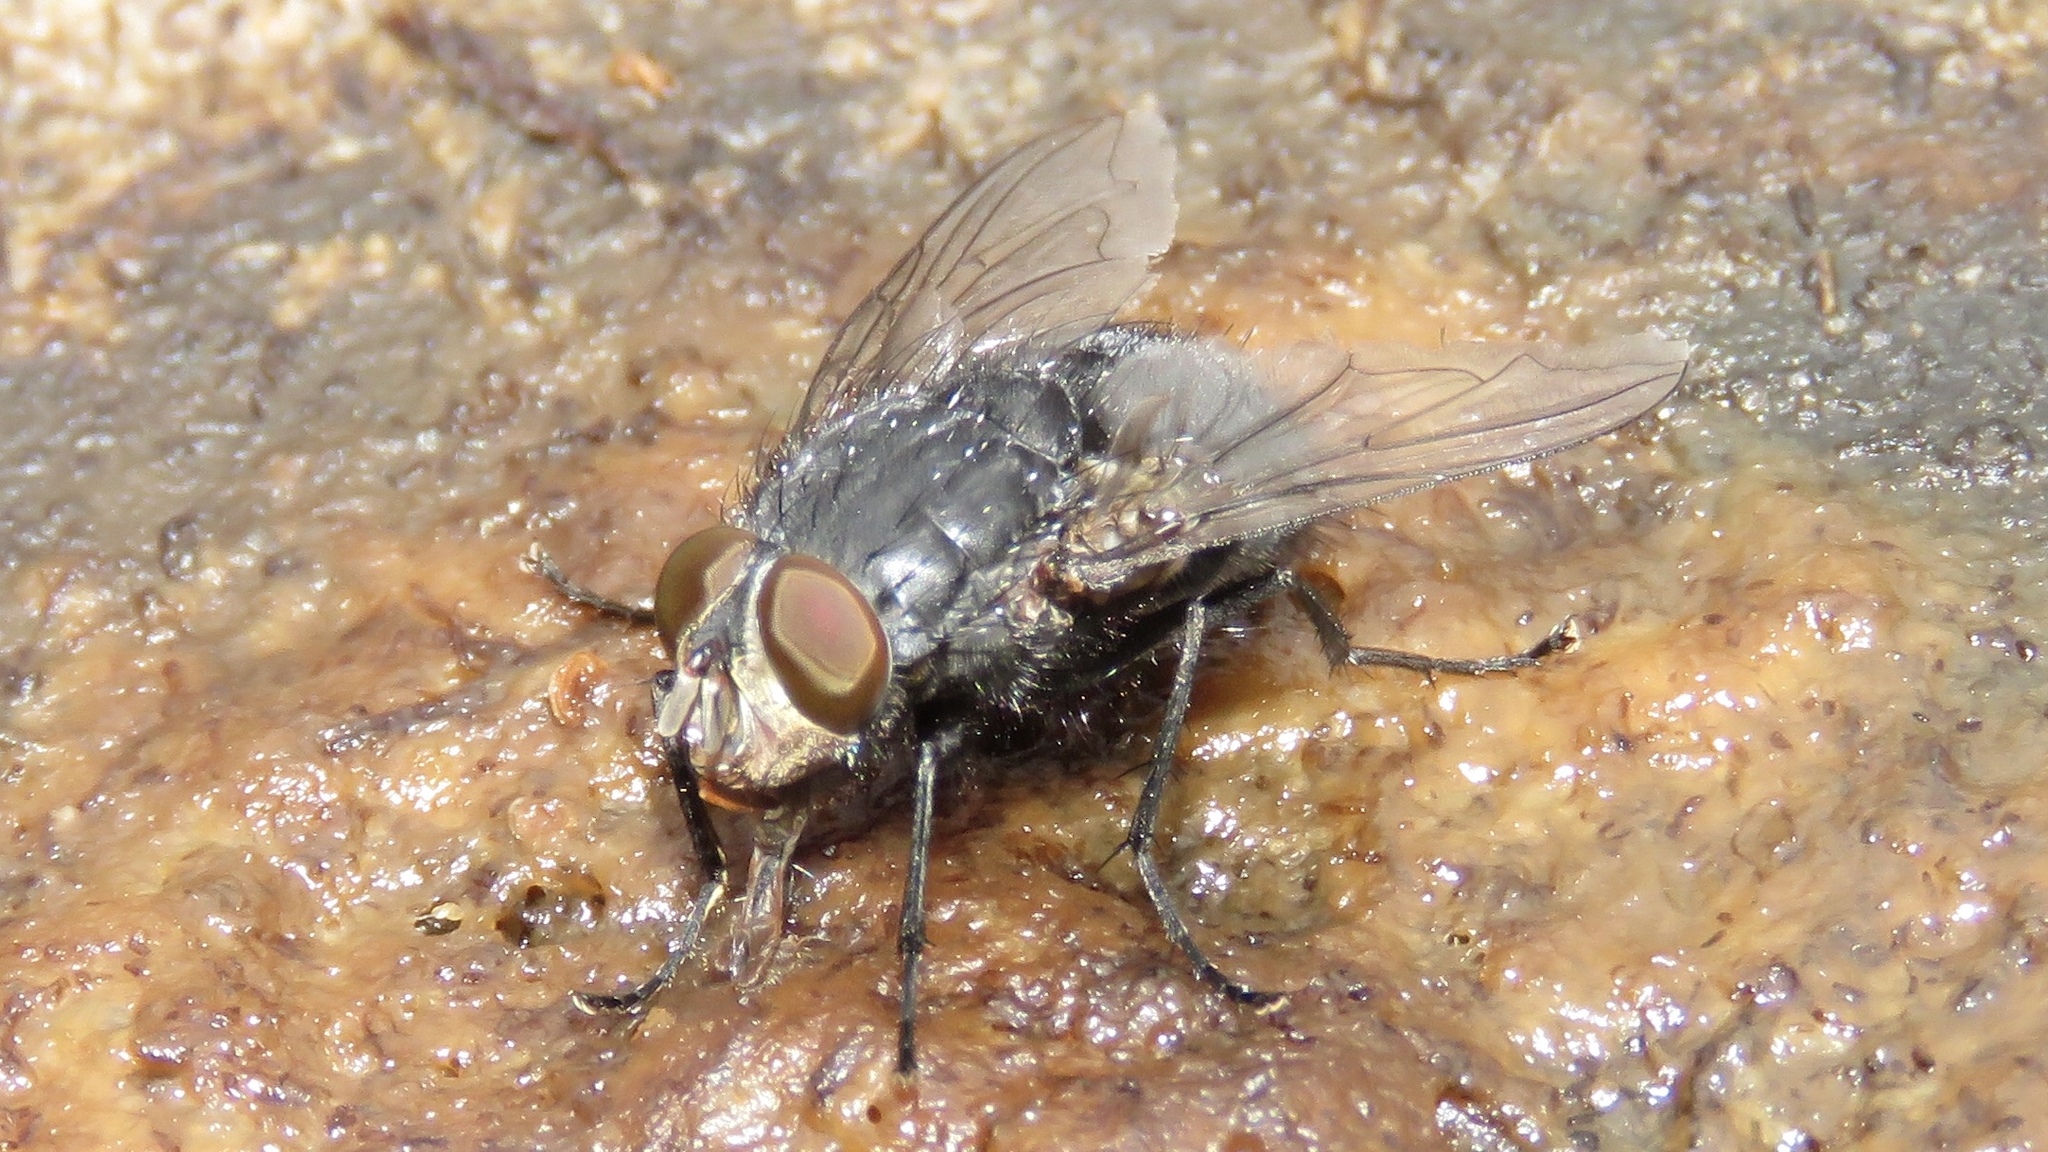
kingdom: Animalia
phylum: Arthropoda
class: Insecta
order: Diptera
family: Calliphoridae
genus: Calliphora
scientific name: Calliphora vicina
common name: Common blow flie
